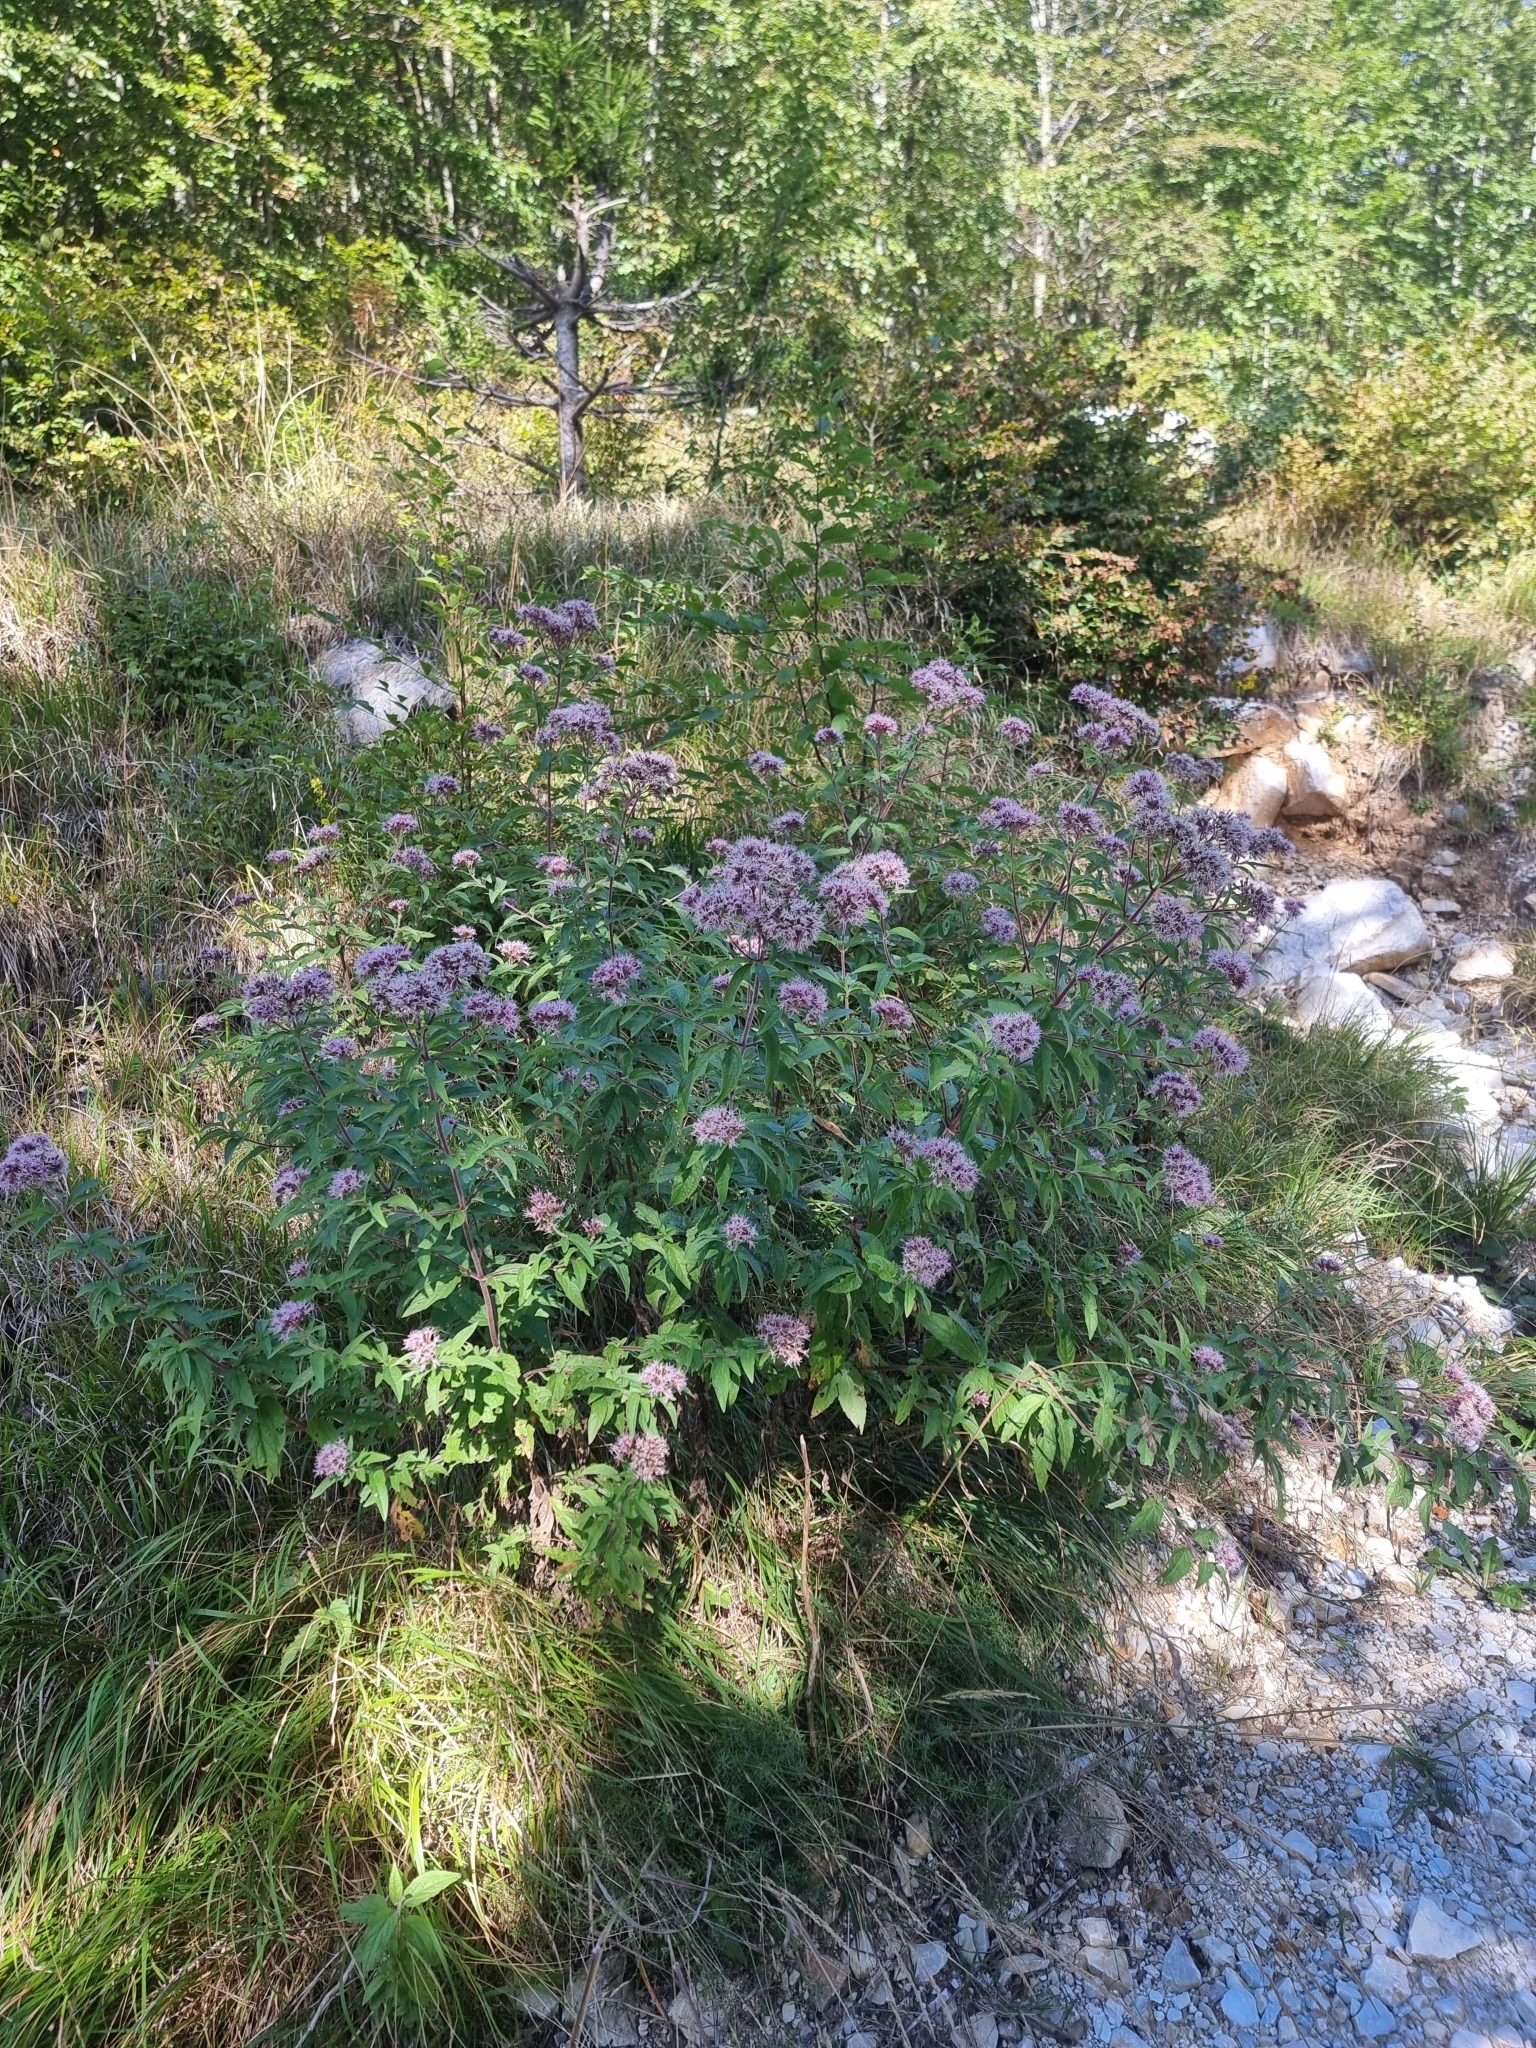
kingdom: Plantae
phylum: Tracheophyta
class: Magnoliopsida
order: Asterales
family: Asteraceae
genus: Eupatorium
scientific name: Eupatorium cannabinum
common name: Hemp-agrimony
